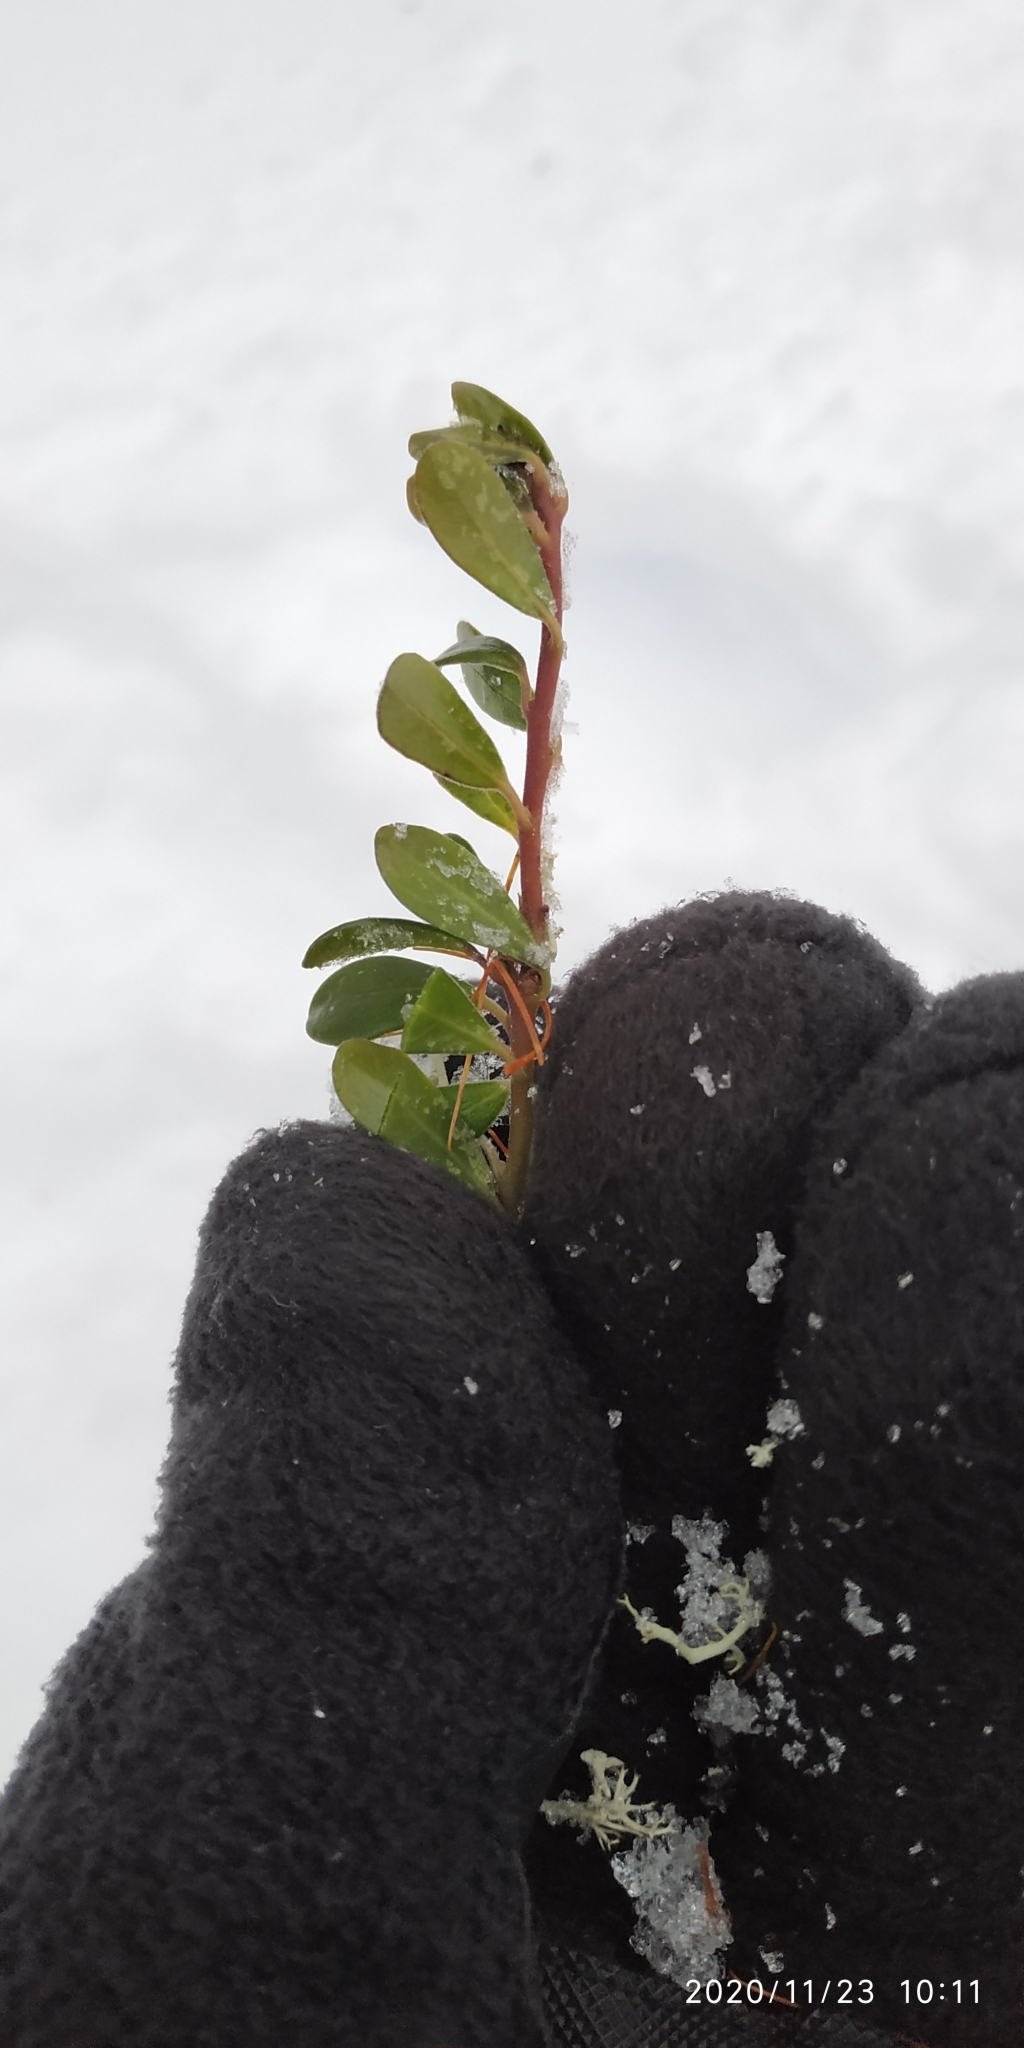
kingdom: Plantae
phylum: Tracheophyta
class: Magnoliopsida
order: Ericales
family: Ericaceae
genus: Arctostaphylos
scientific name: Arctostaphylos uva-ursi
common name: Bearberry
